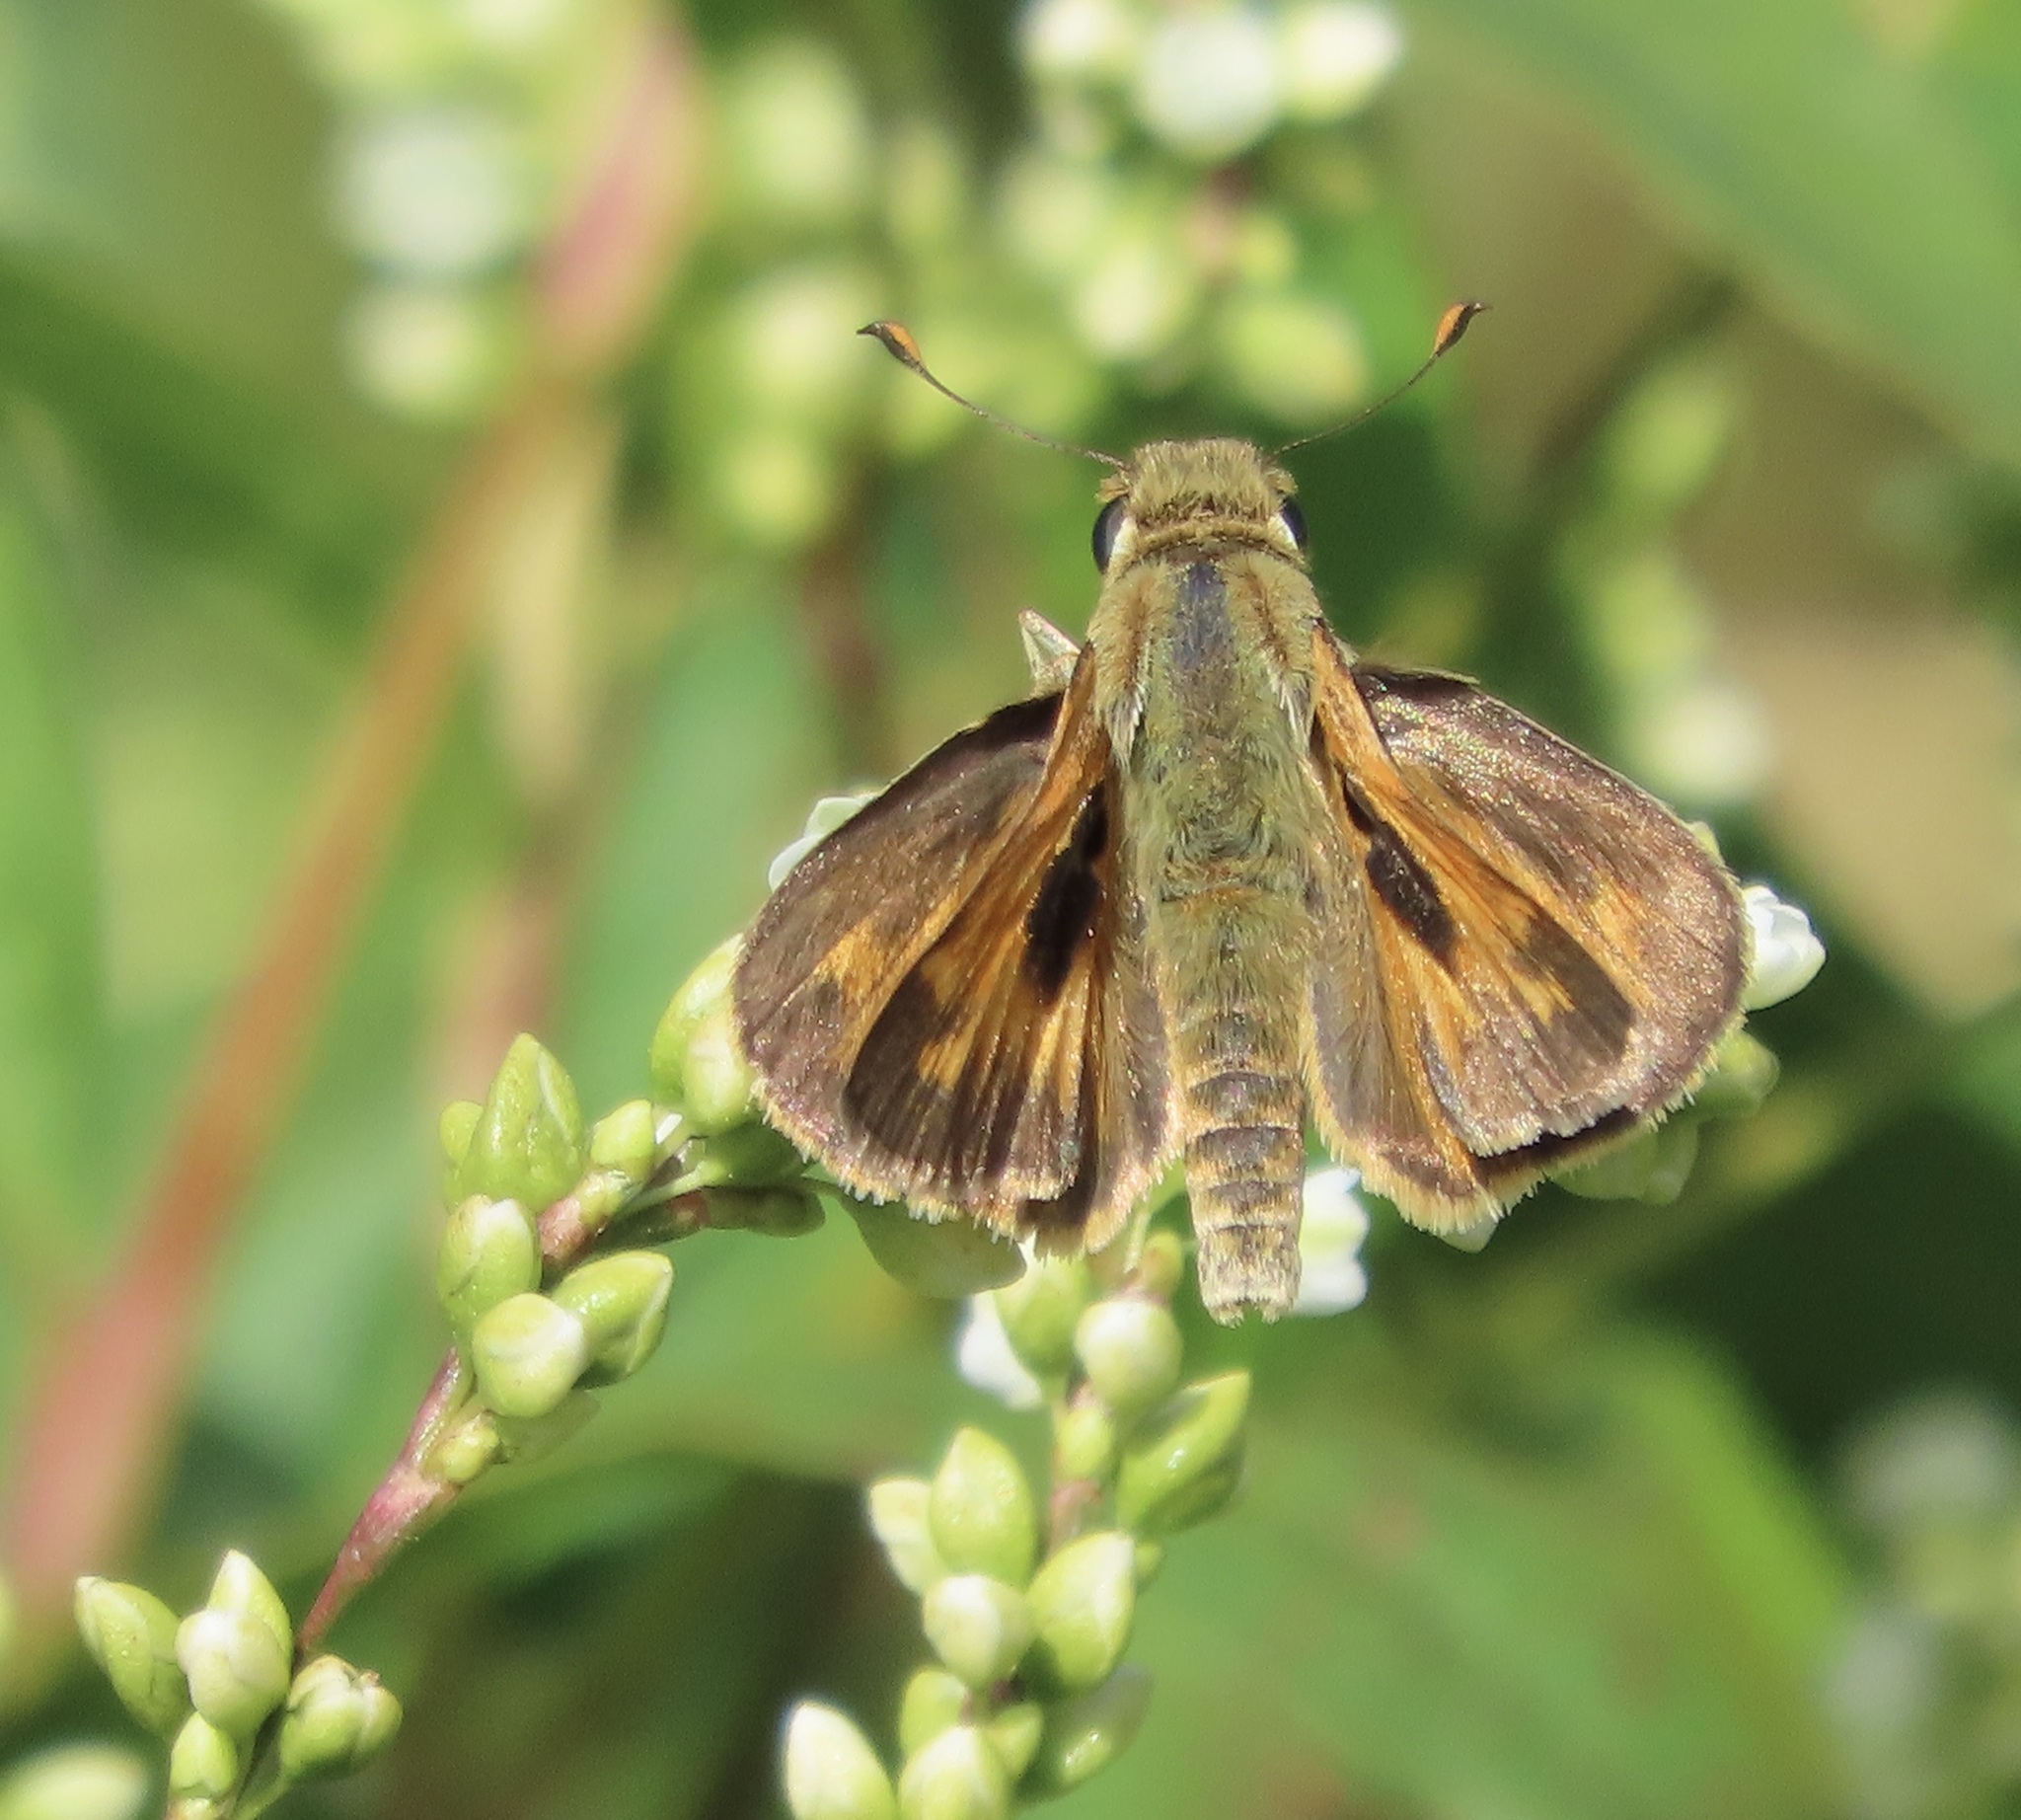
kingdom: Animalia
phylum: Arthropoda
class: Insecta
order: Lepidoptera
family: Hesperiidae
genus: Atalopedes
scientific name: Atalopedes campestris
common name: Sachem
